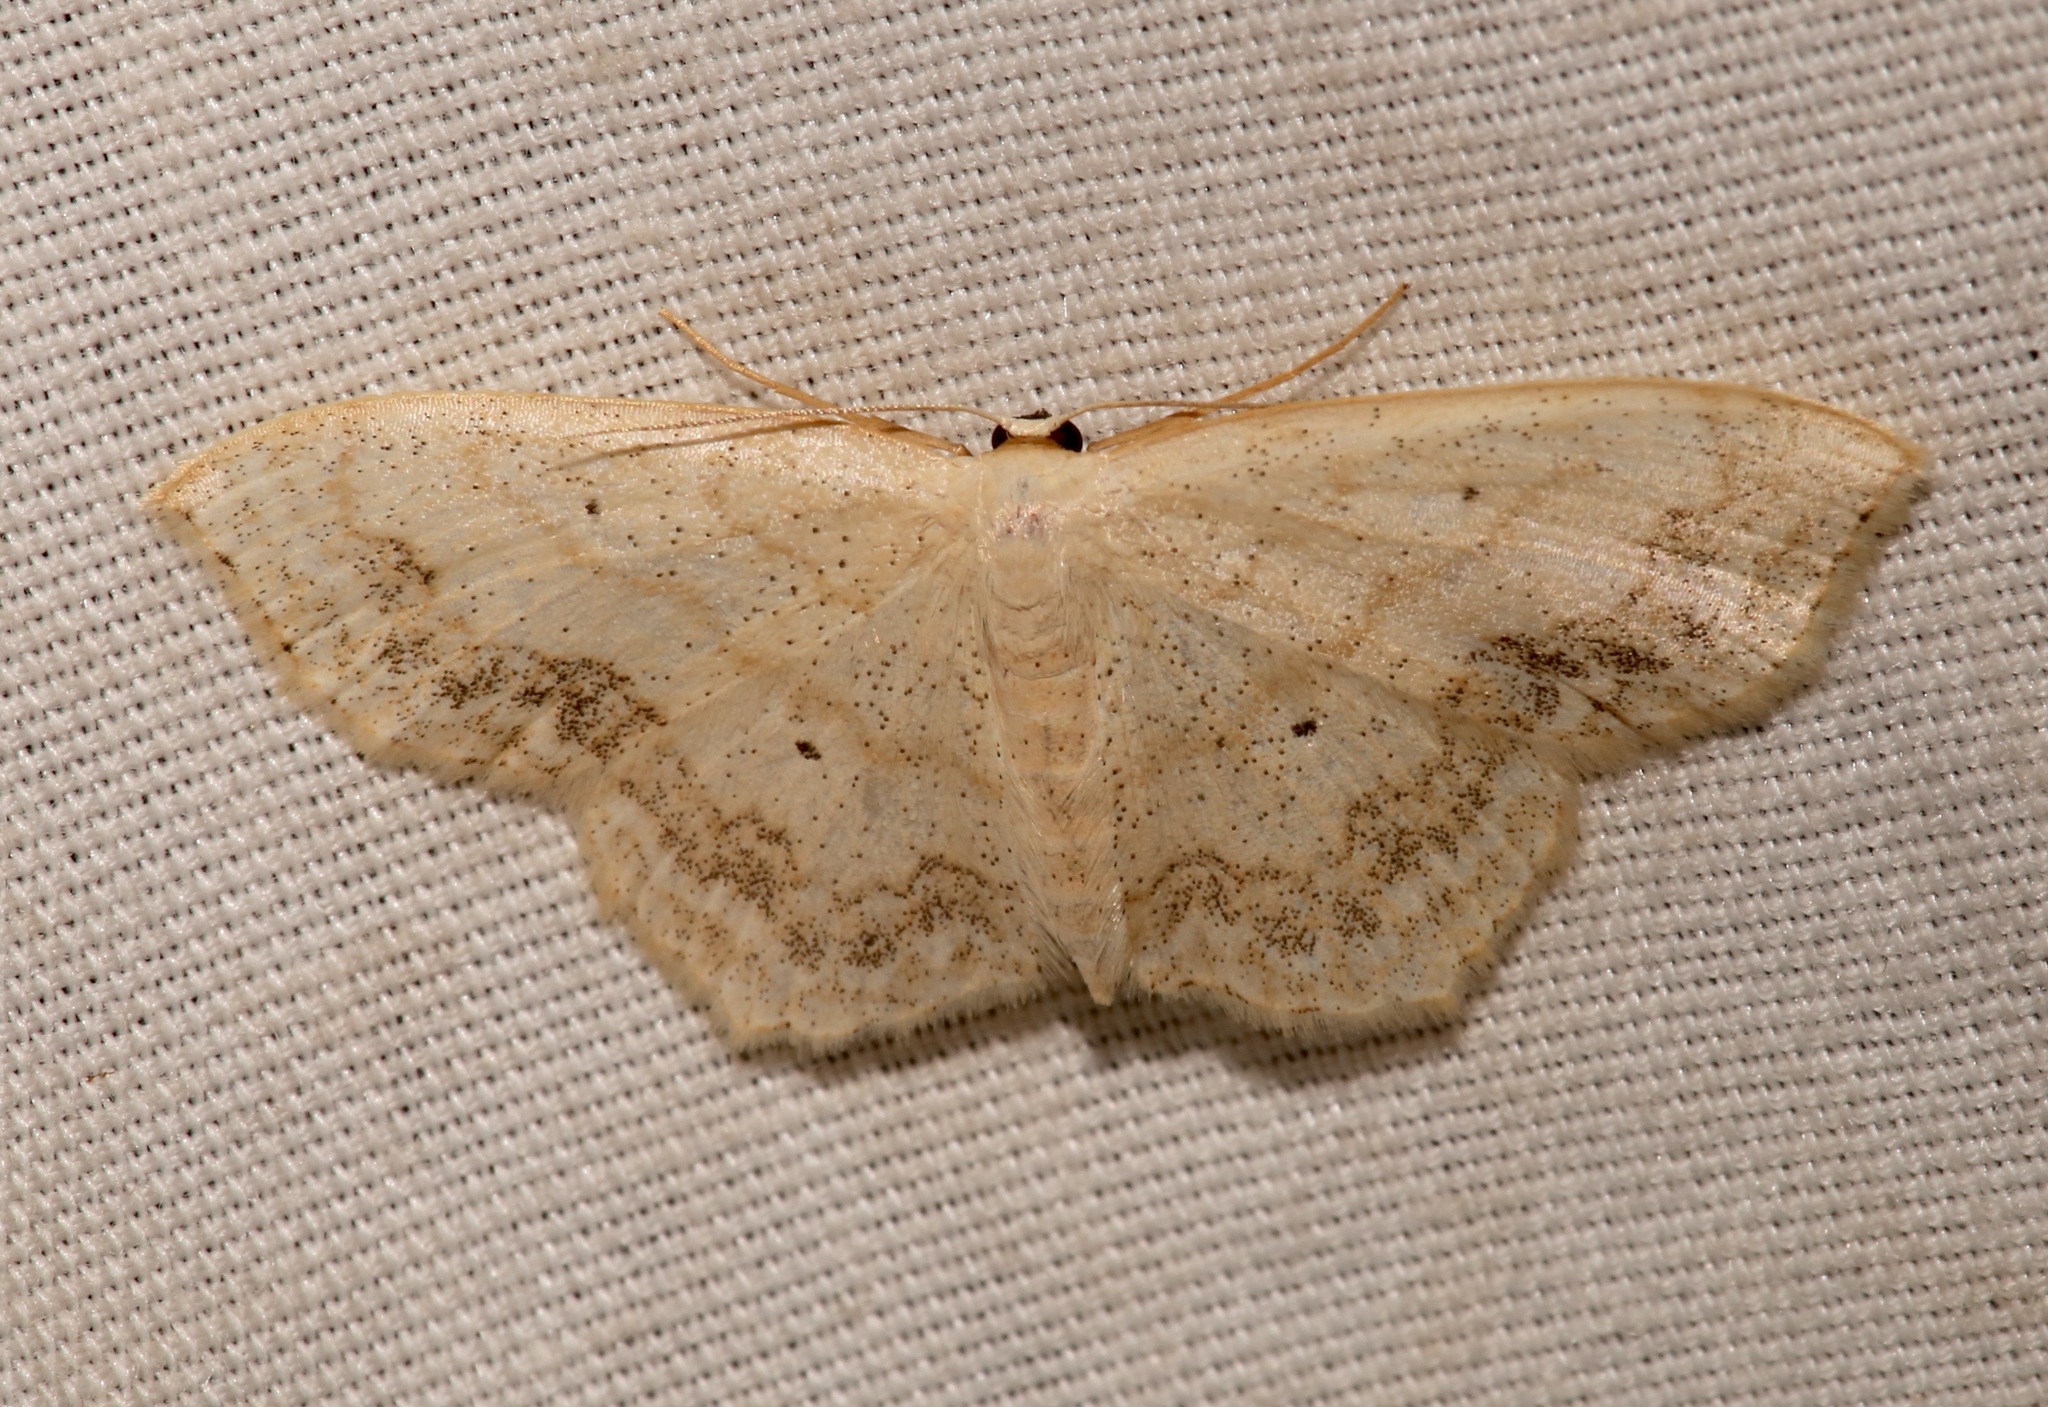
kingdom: Animalia
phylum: Arthropoda
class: Insecta
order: Lepidoptera
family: Geometridae
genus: Scopula
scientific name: Scopula limboundata
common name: Large lace border
